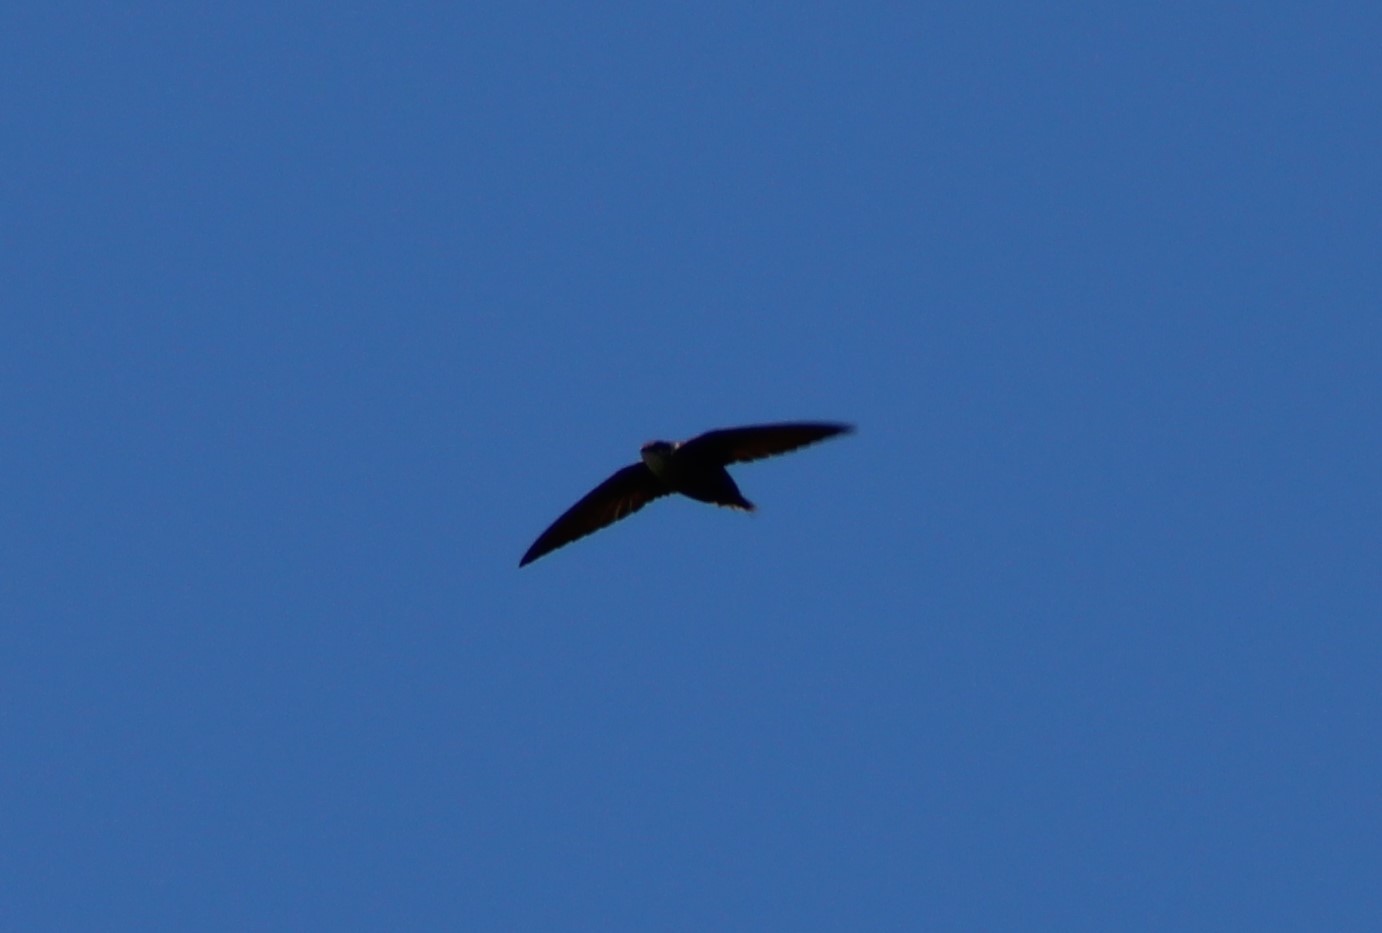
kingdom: Animalia
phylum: Chordata
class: Aves
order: Apodiformes
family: Apodidae
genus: Chaetura
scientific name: Chaetura pelagica
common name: Chimney swift
